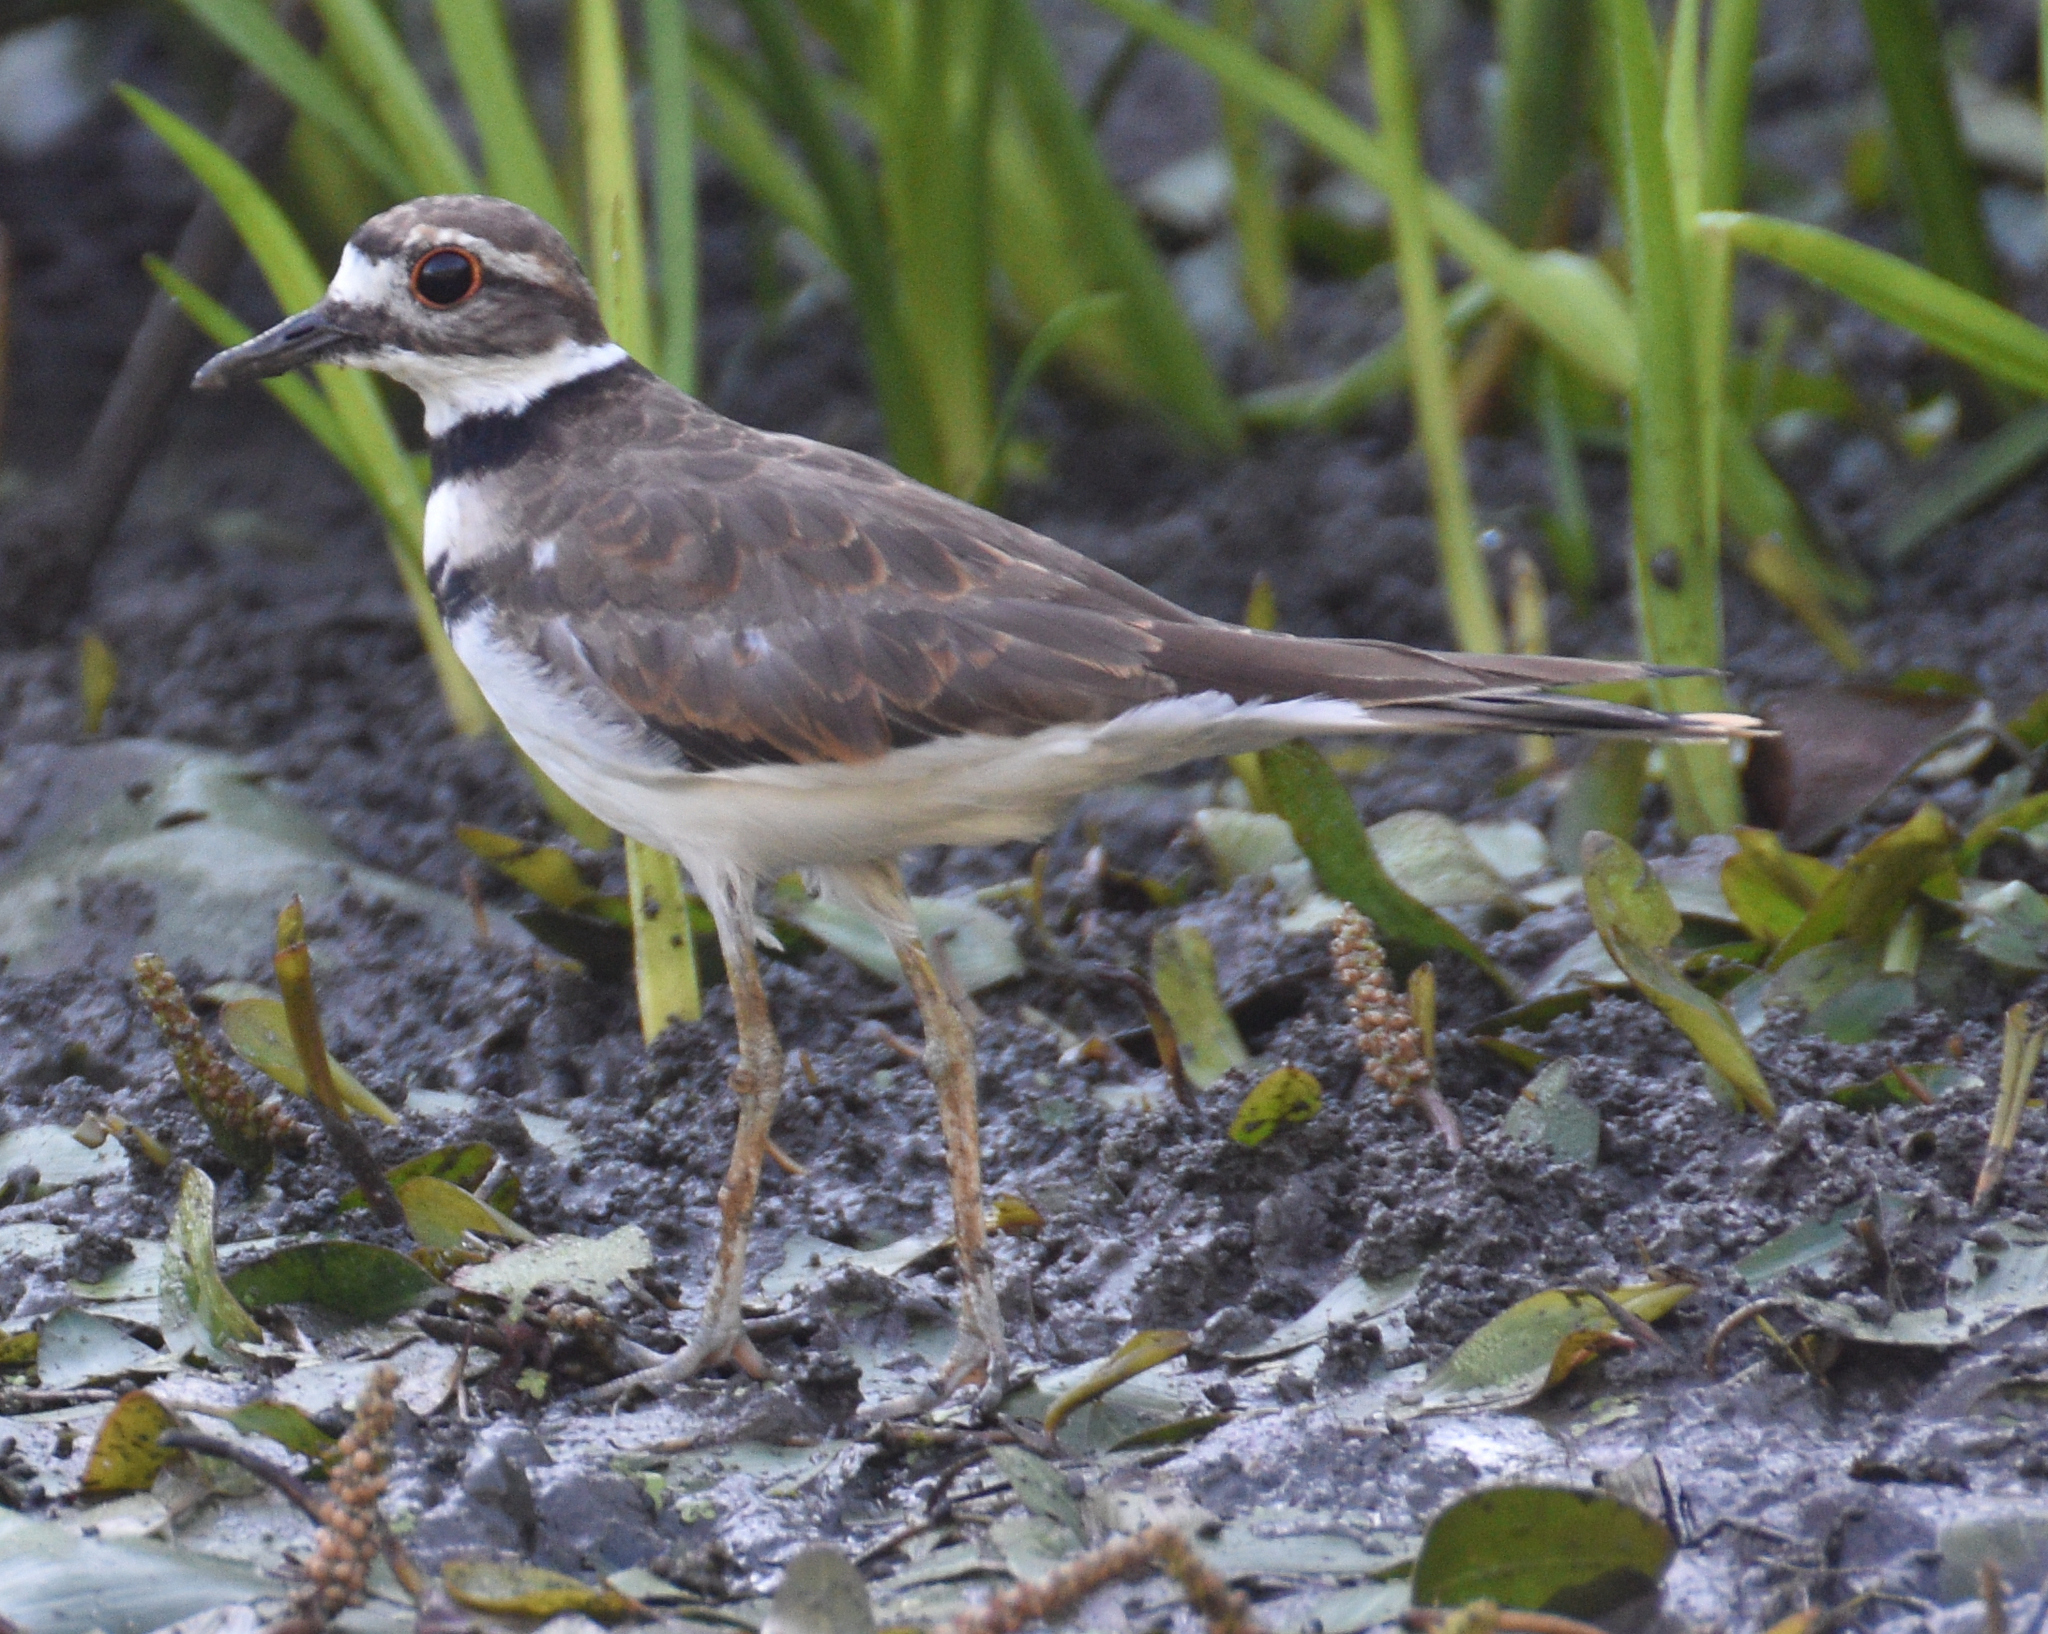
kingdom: Animalia
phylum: Chordata
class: Aves
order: Charadriiformes
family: Charadriidae
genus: Charadrius
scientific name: Charadrius vociferus
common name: Killdeer
